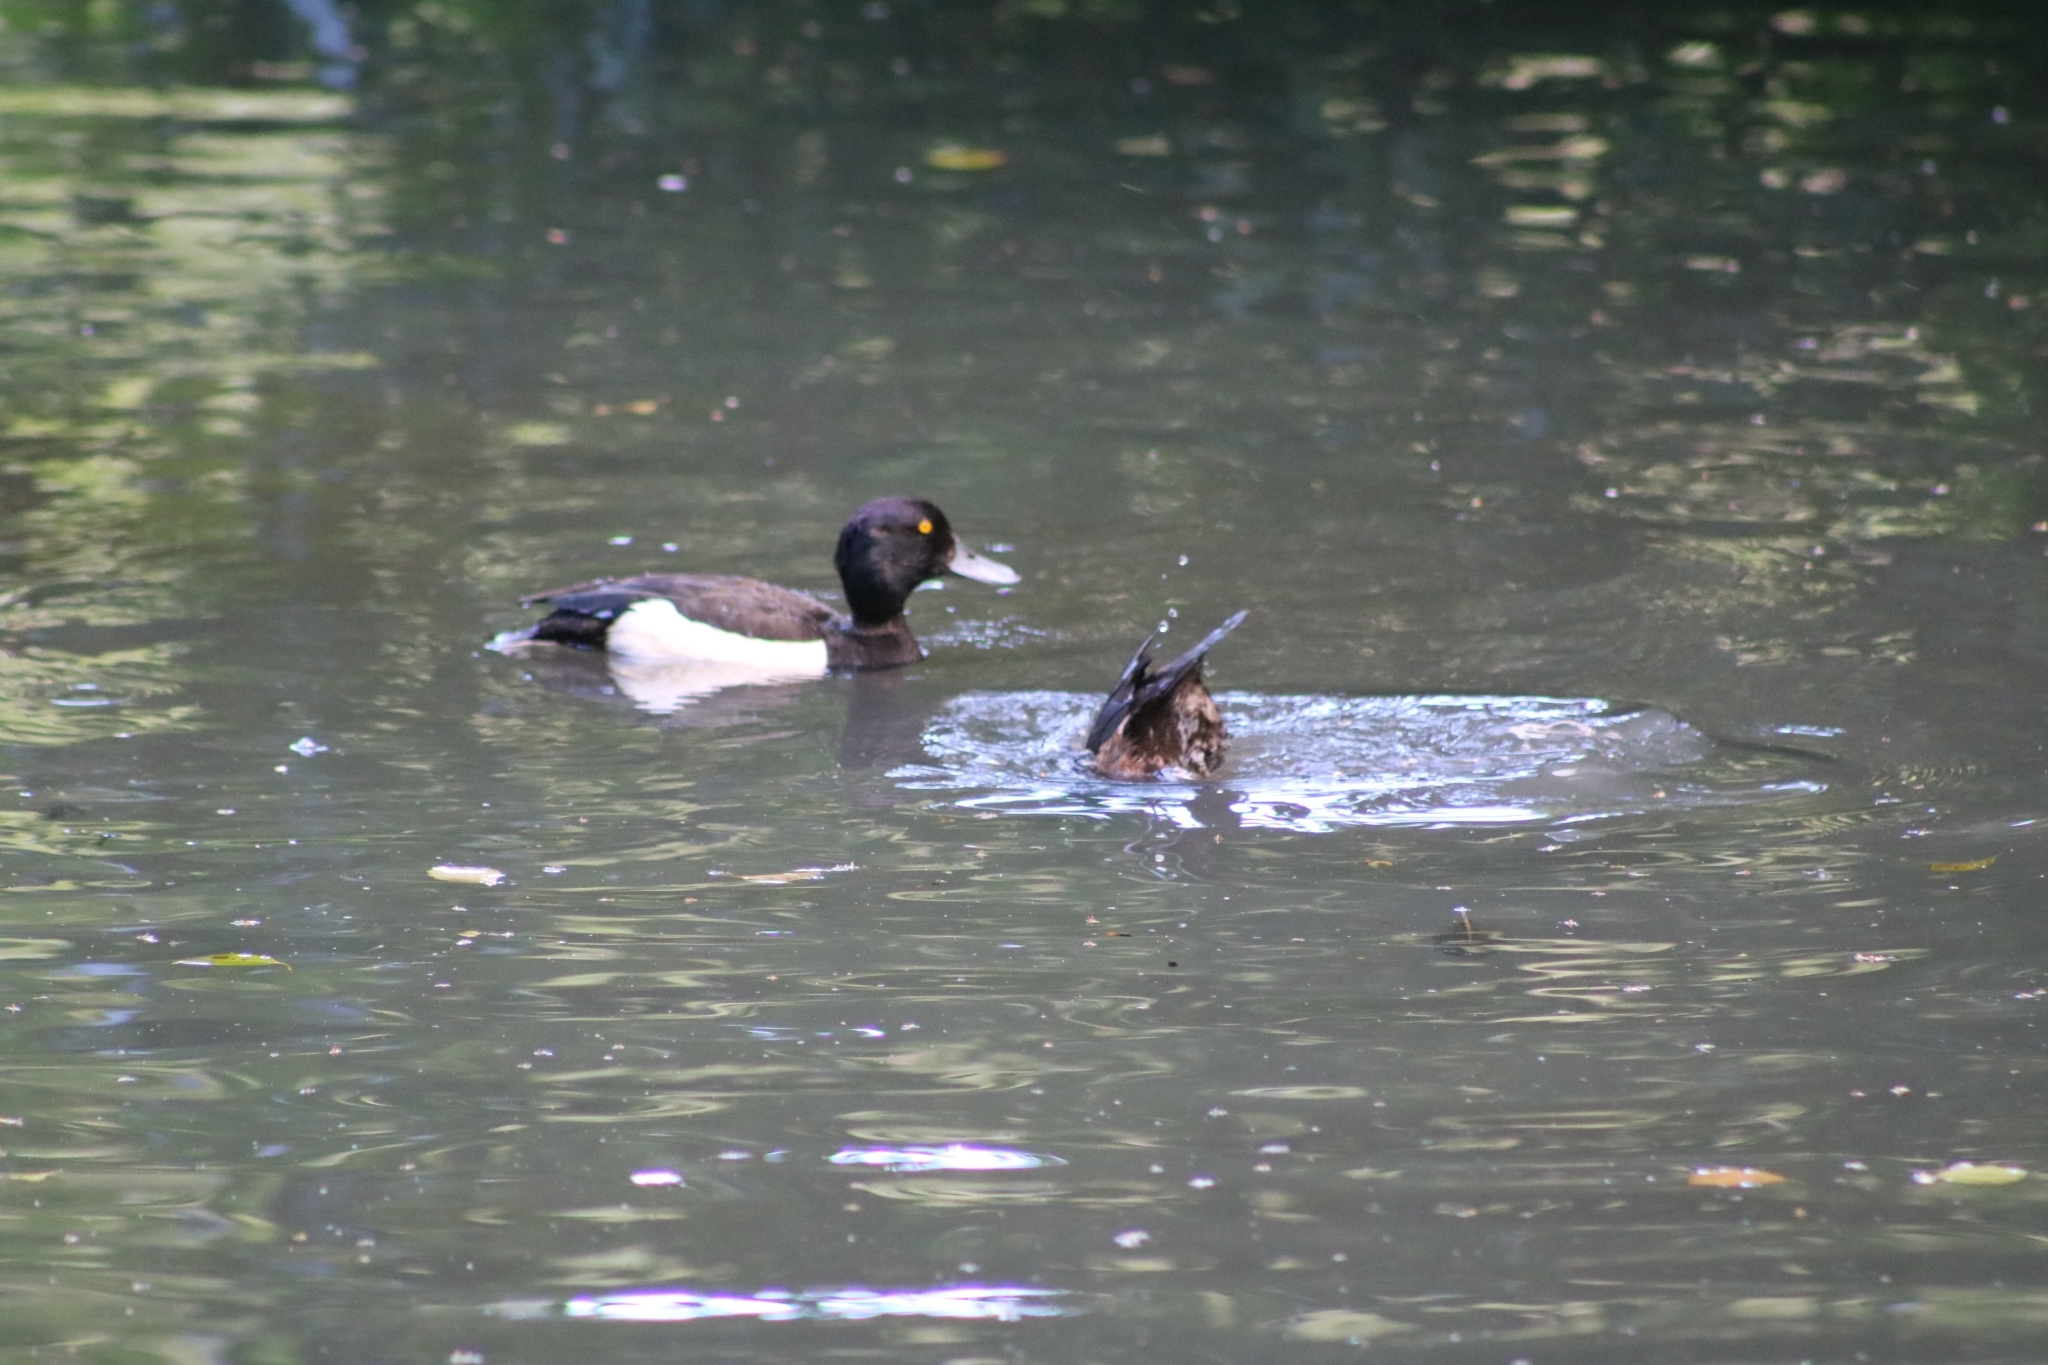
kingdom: Animalia
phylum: Chordata
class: Aves
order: Anseriformes
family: Anatidae
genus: Aythya
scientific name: Aythya fuligula
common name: Tufted duck
